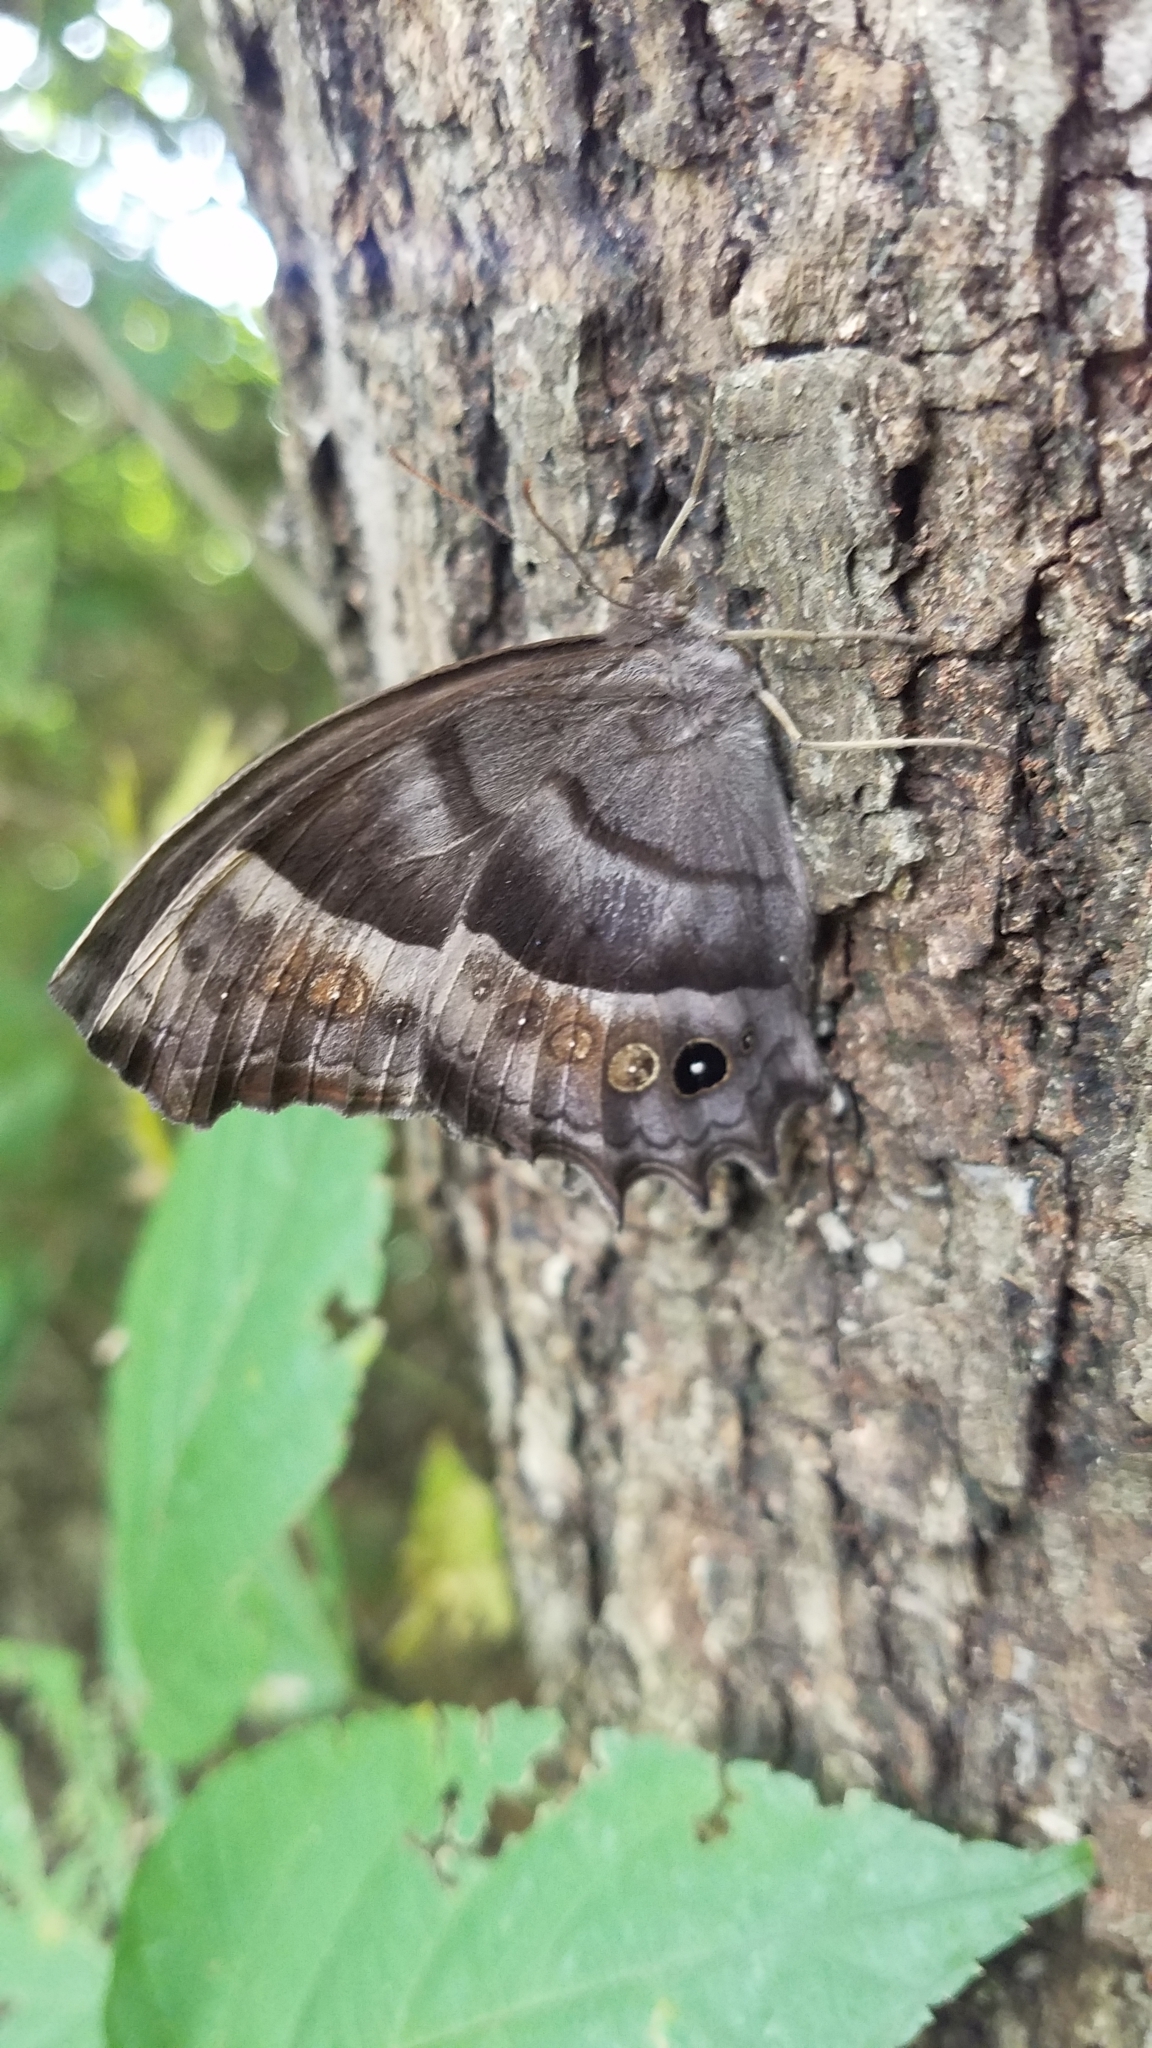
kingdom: Animalia
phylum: Arthropoda
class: Insecta
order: Lepidoptera
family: Nymphalidae
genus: Taygetis
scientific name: Taygetis inconspicua
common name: Inconspicuous satyr
